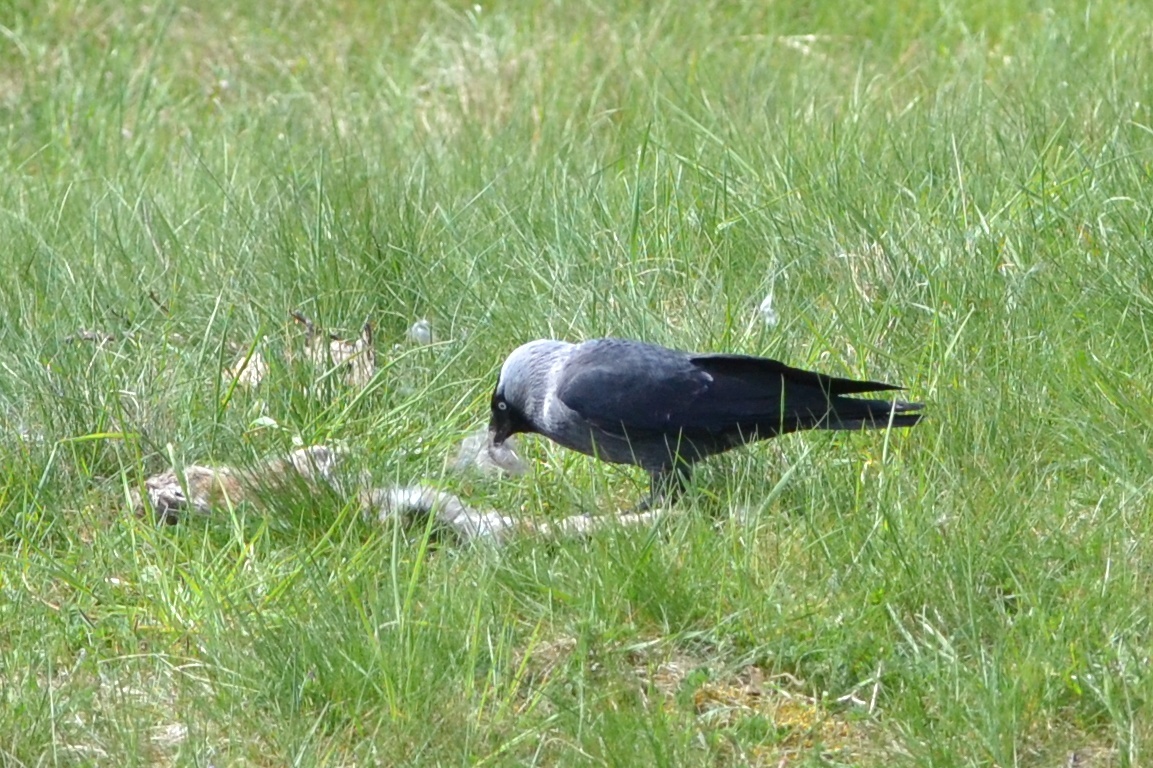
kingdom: Animalia
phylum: Chordata
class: Aves
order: Passeriformes
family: Corvidae
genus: Coloeus
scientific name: Coloeus monedula
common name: Western jackdaw
